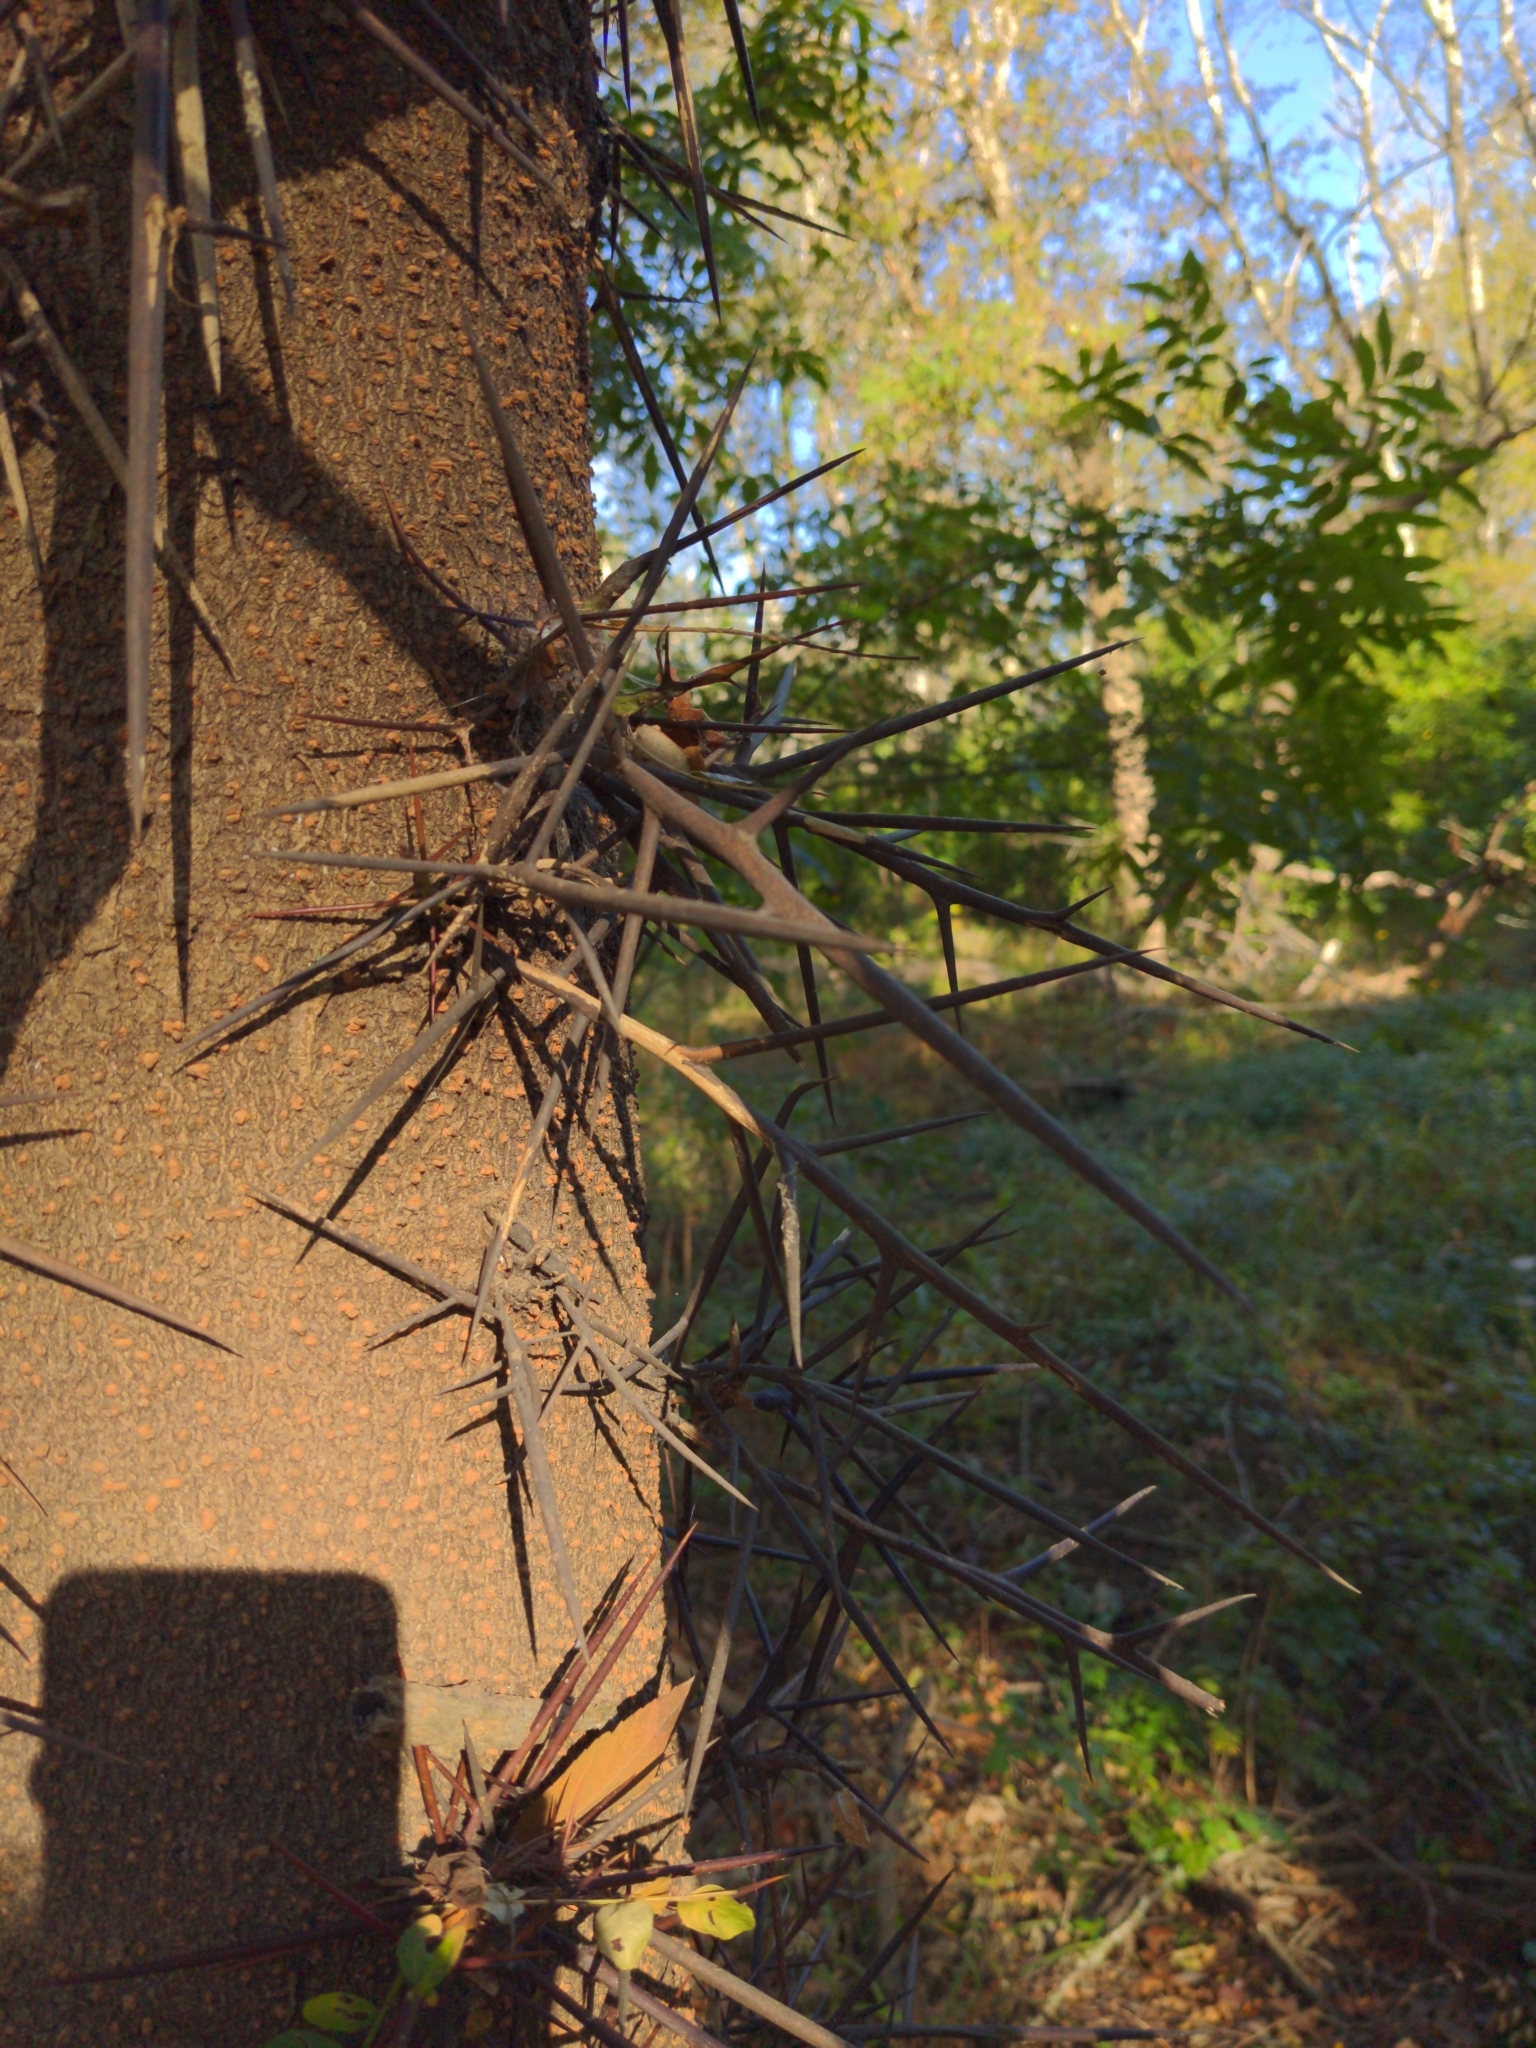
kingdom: Plantae
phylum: Tracheophyta
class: Magnoliopsida
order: Fabales
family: Fabaceae
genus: Gleditsia
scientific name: Gleditsia triacanthos
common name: Common honeylocust
